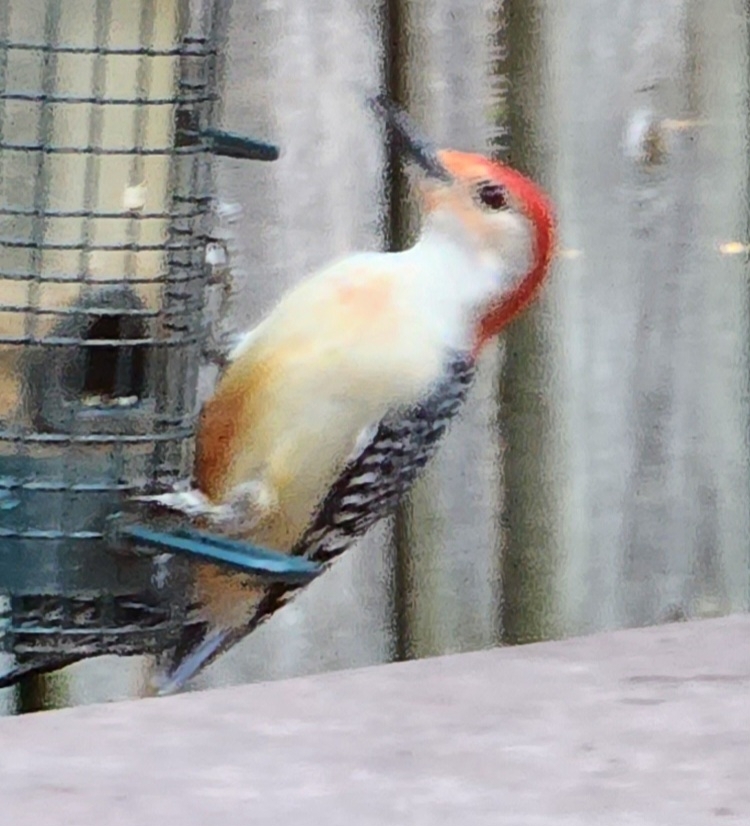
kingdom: Animalia
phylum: Chordata
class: Aves
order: Piciformes
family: Picidae
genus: Melanerpes
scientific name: Melanerpes carolinus
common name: Red-bellied woodpecker
